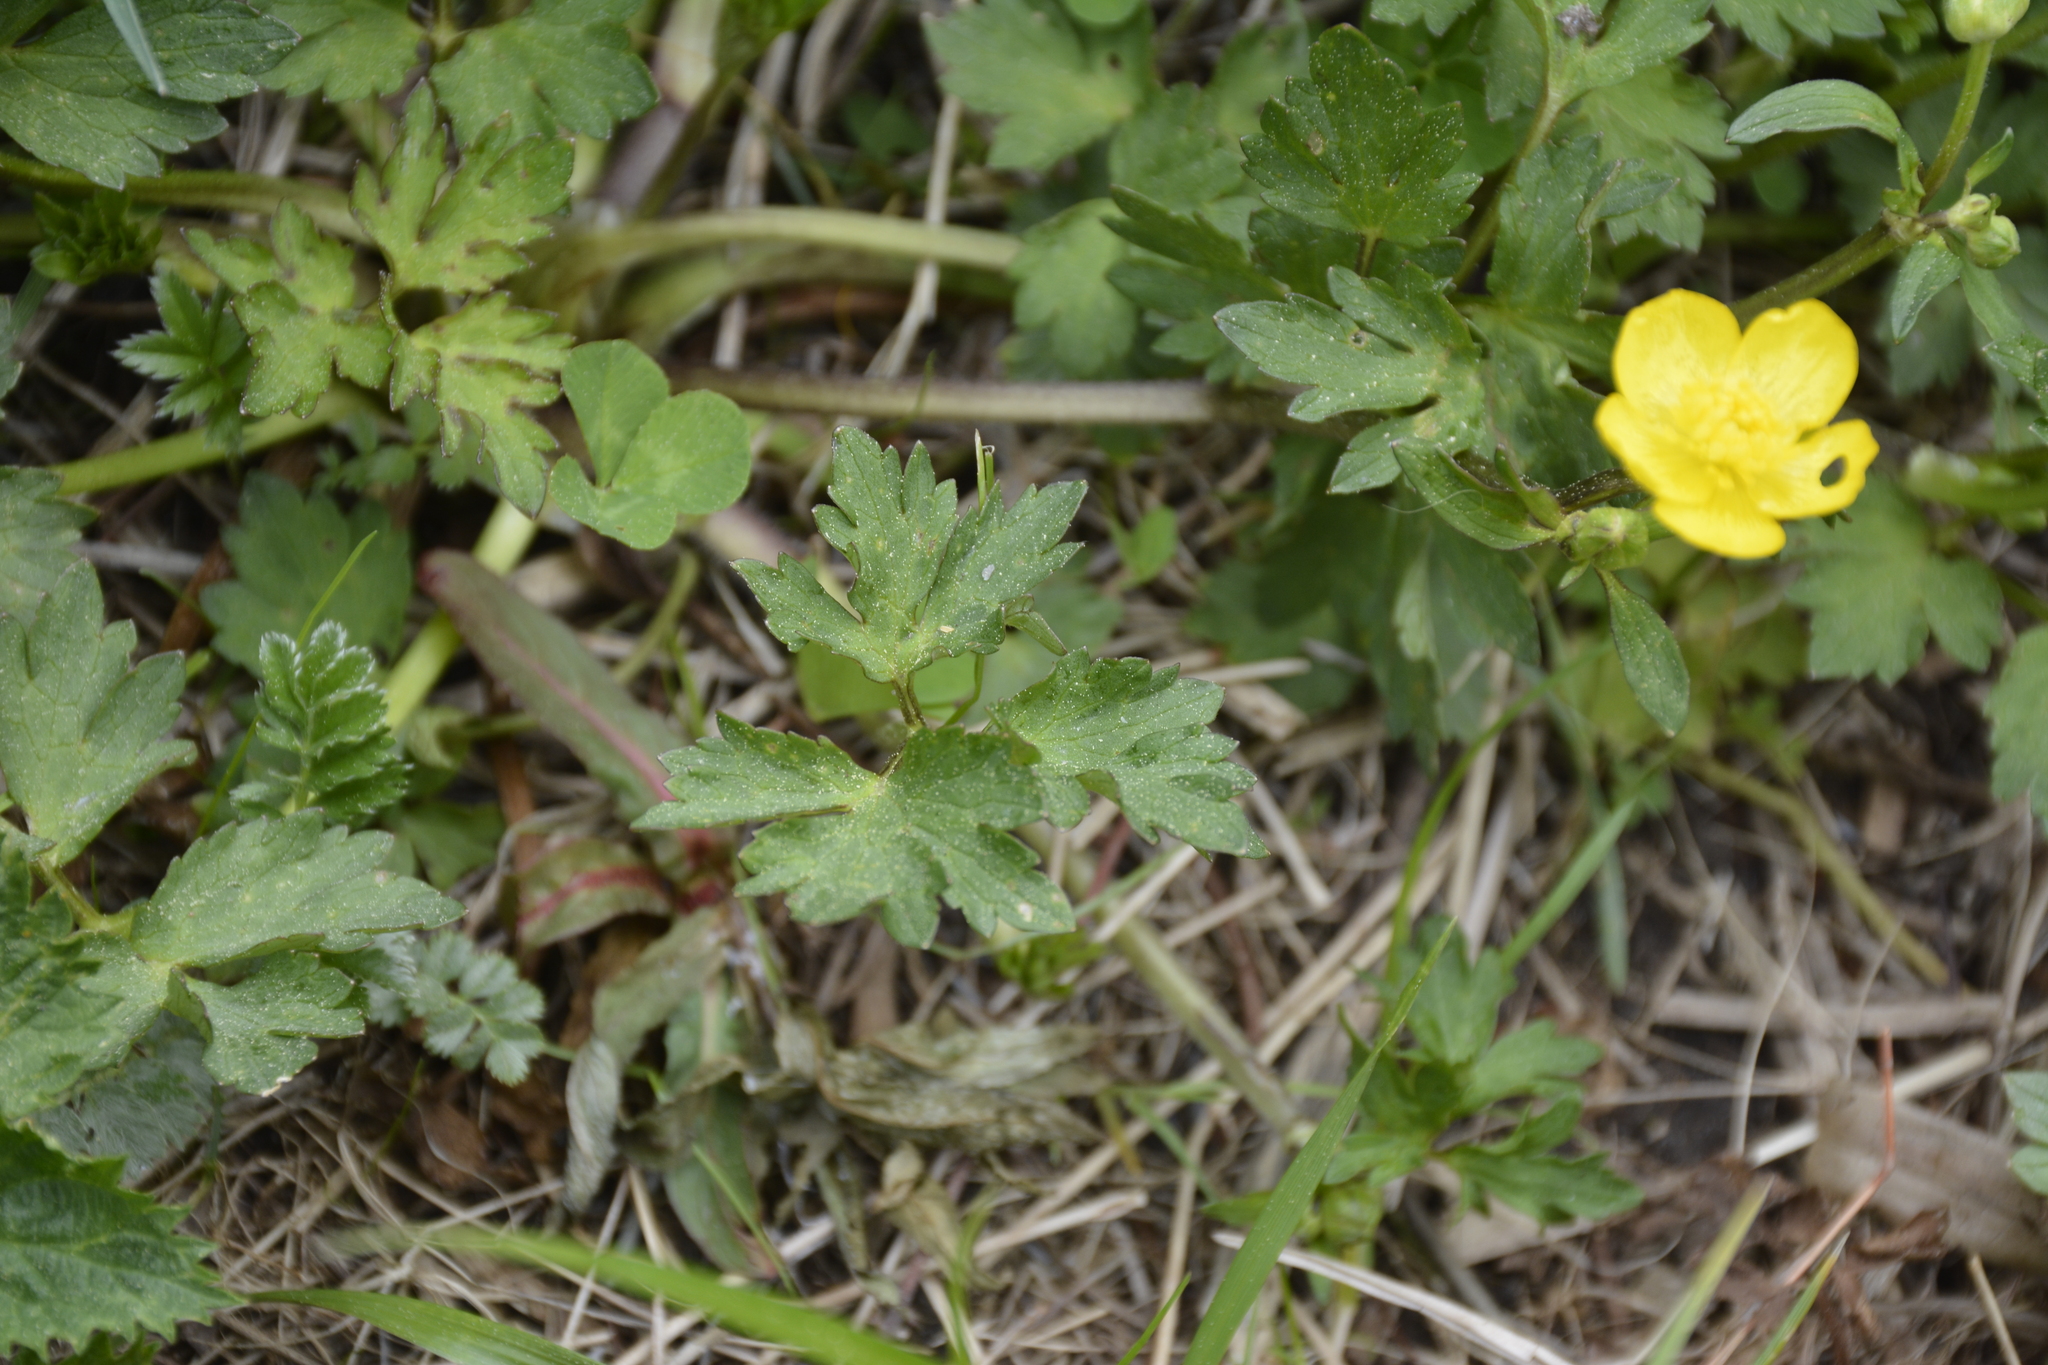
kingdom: Plantae
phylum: Tracheophyta
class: Magnoliopsida
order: Ranunculales
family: Ranunculaceae
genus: Ranunculus
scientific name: Ranunculus repens
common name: Creeping buttercup
